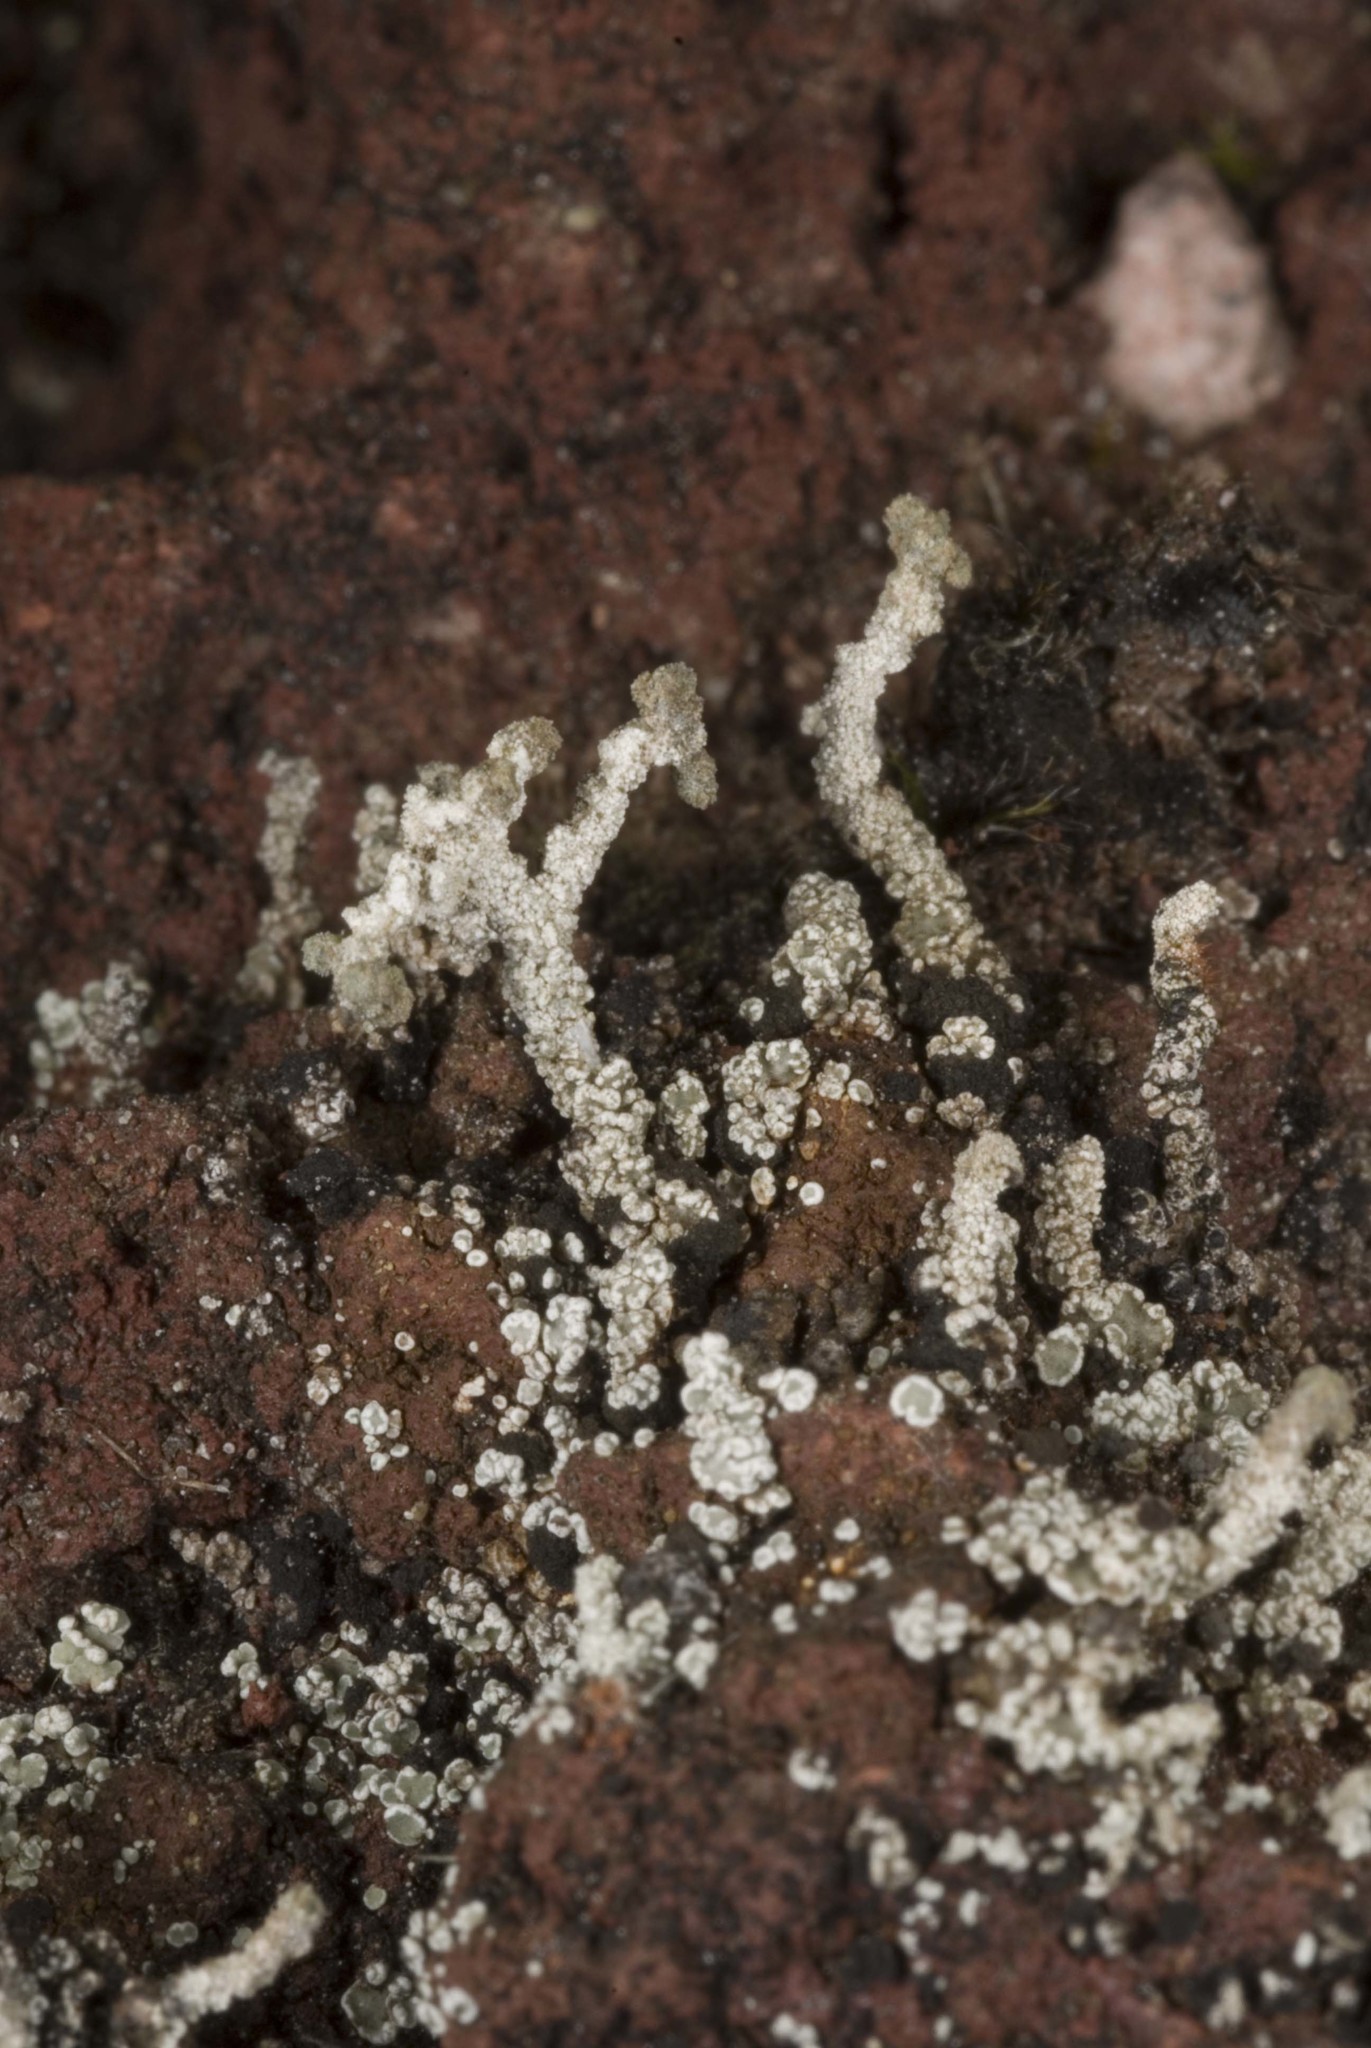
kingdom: Fungi
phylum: Ascomycota
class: Lecanoromycetes
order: Lecanorales
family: Stereocaulaceae
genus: Stereocaulon
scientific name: Stereocaulon vesuvianum
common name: Variegated foam lichen
